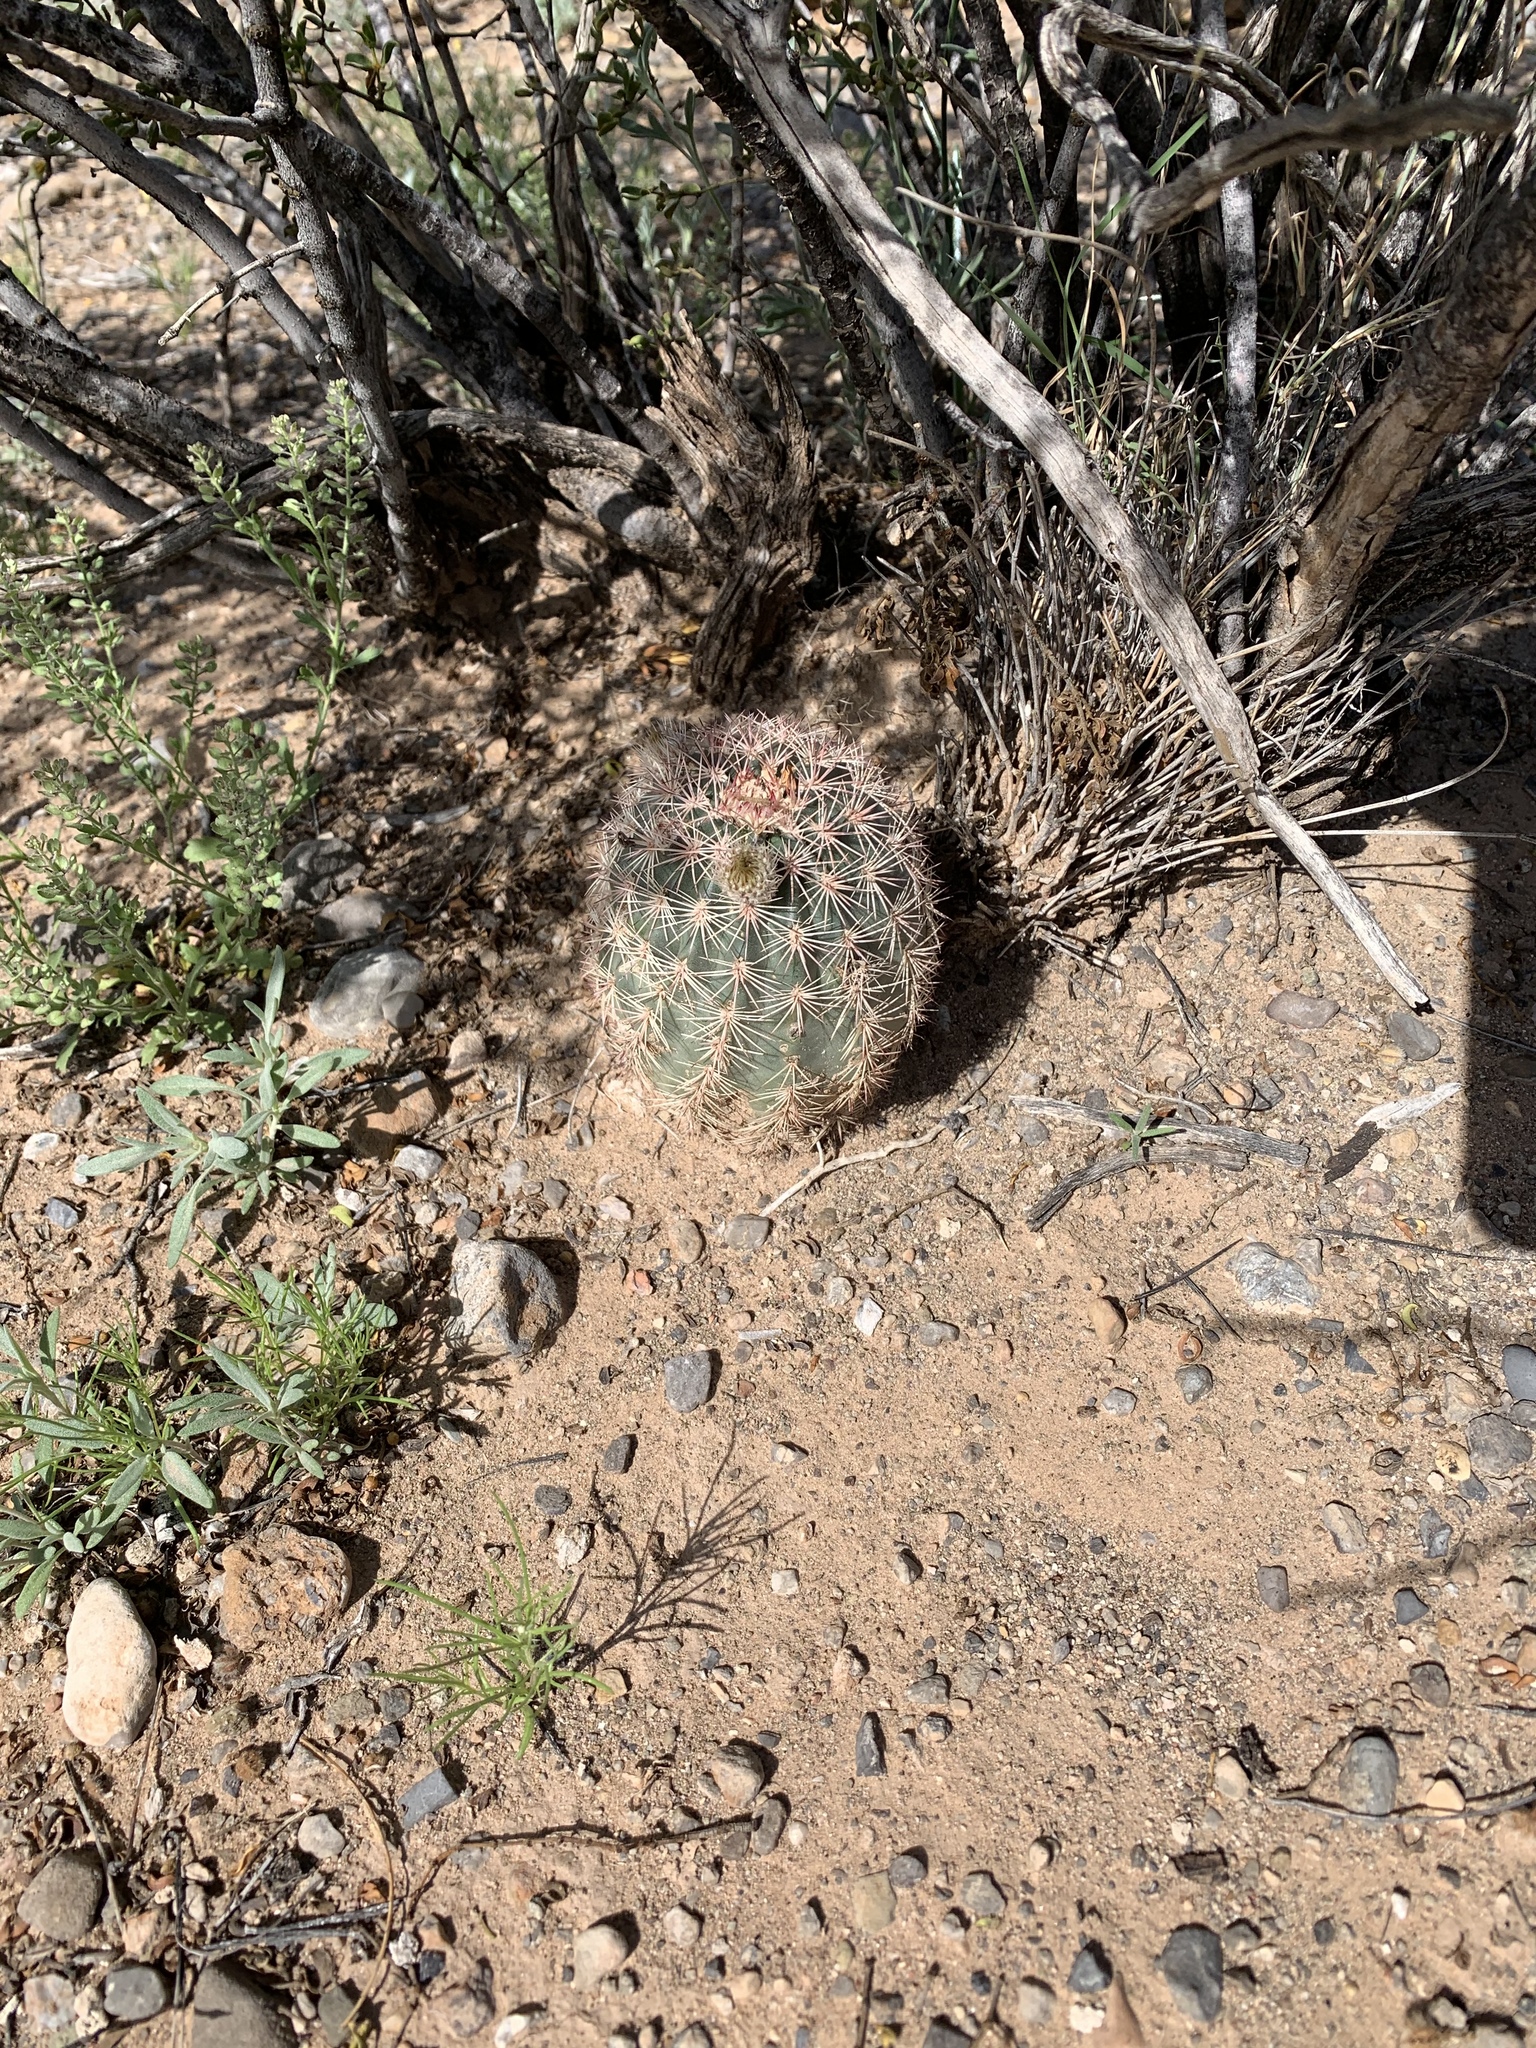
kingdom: Plantae
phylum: Tracheophyta
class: Magnoliopsida
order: Caryophyllales
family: Cactaceae
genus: Echinocereus
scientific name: Echinocereus dasyacanthus
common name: Spiny hedgehog cactus
